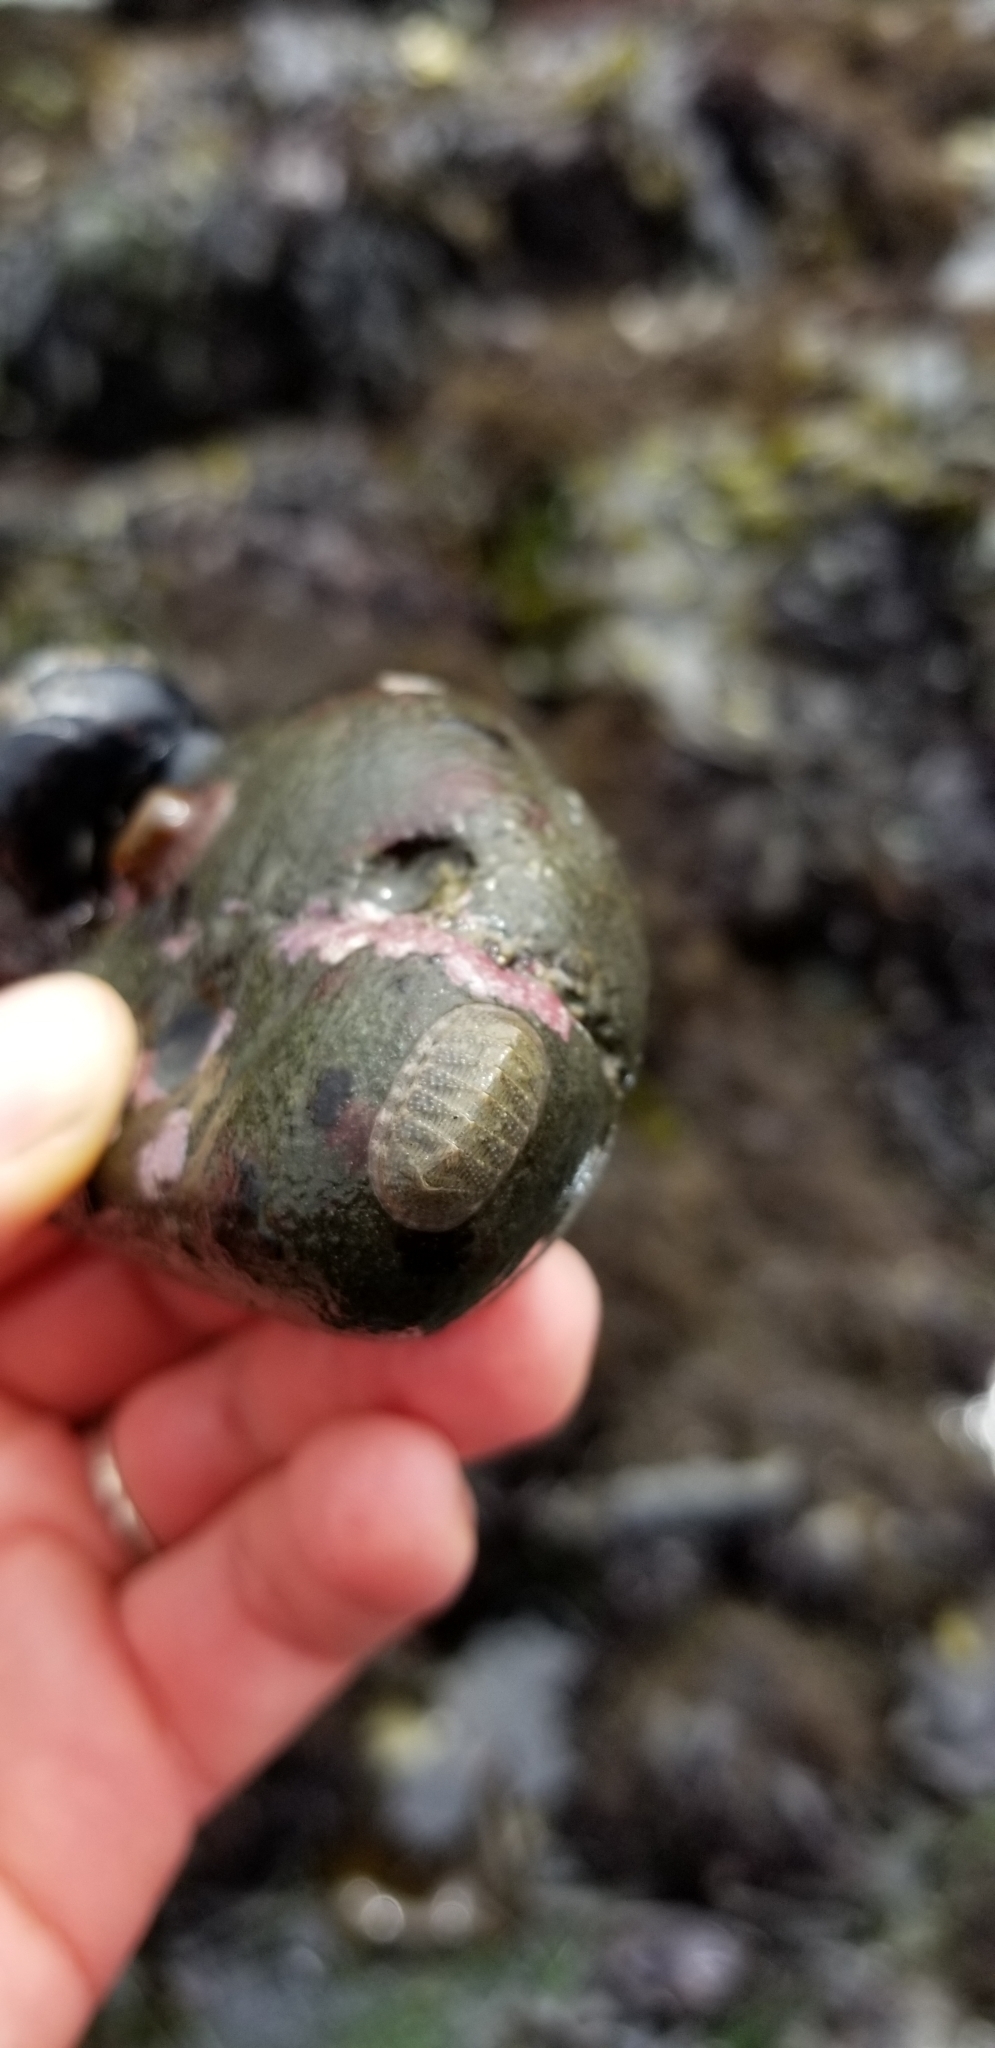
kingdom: Animalia
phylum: Mollusca
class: Polyplacophora
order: Chitonida
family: Ischnochitonidae
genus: Lepidozona
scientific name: Lepidozona cooperi
